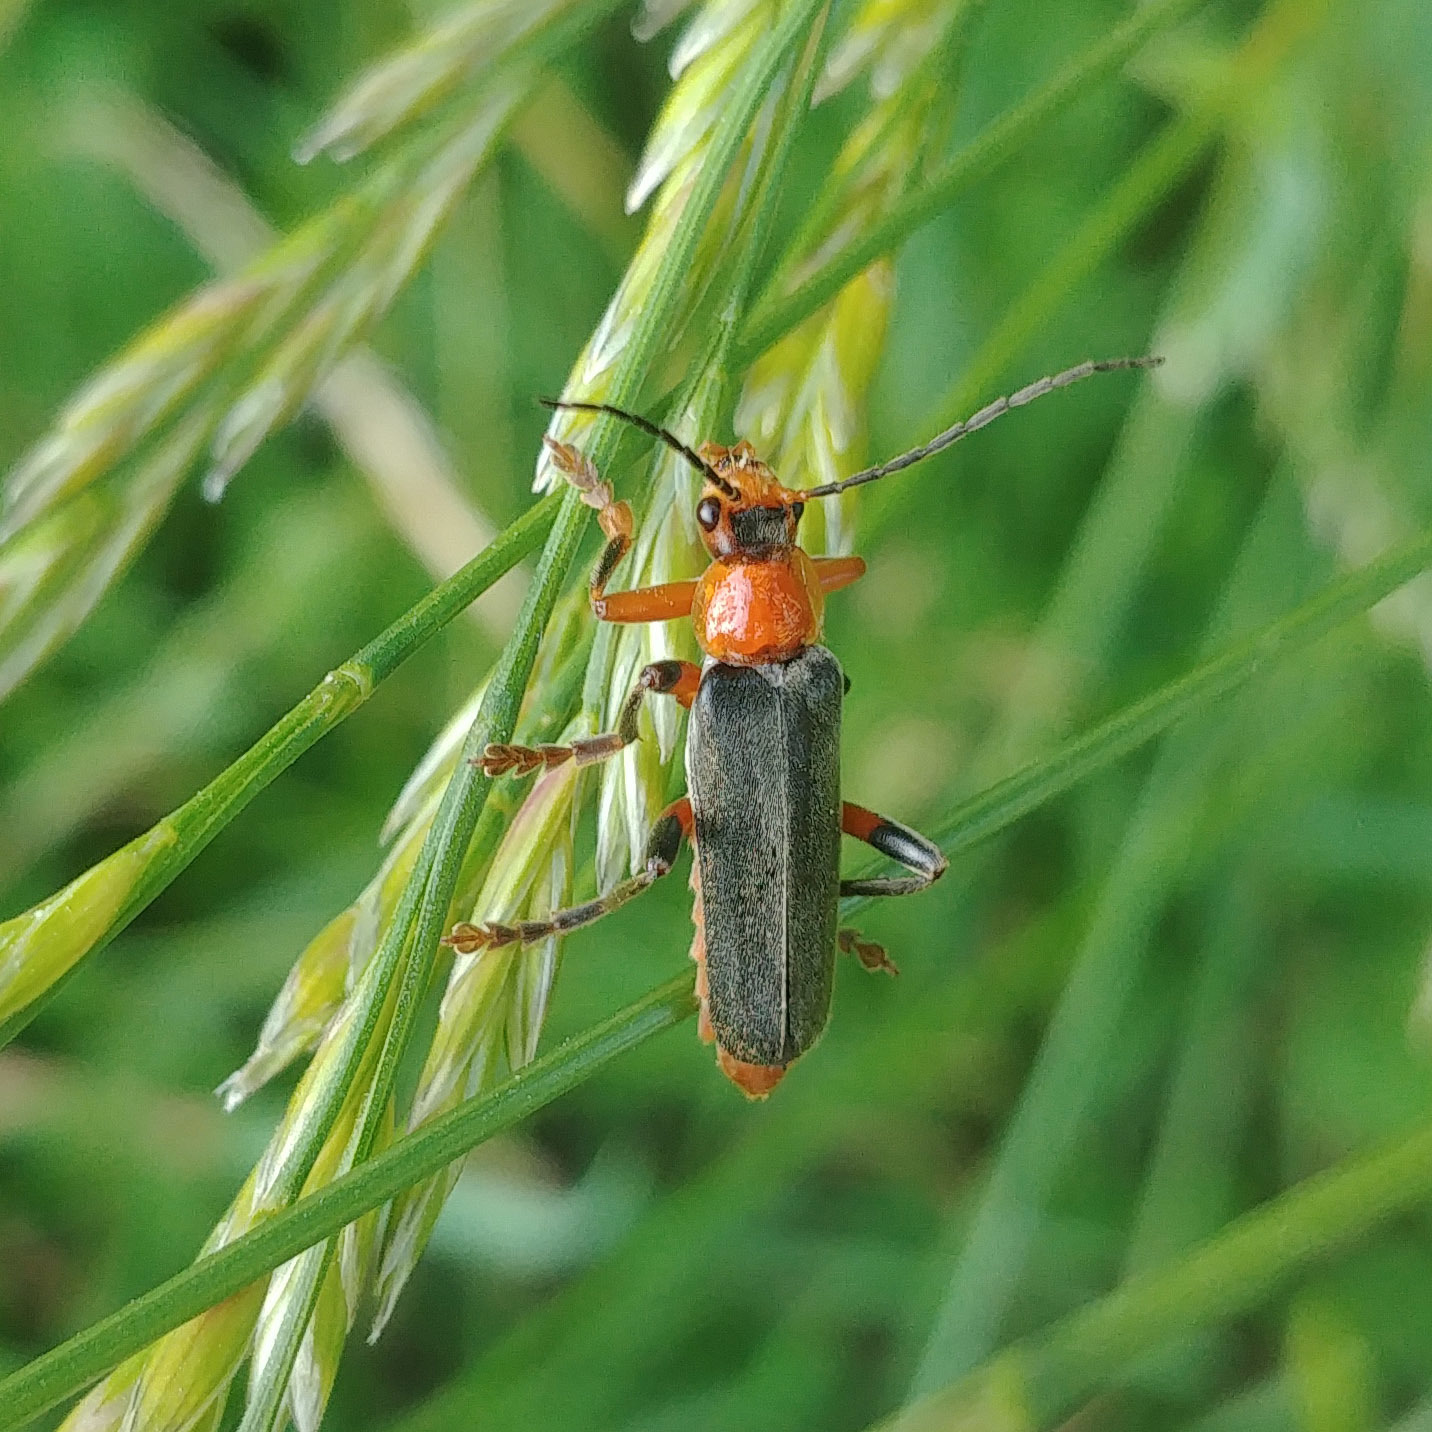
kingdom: Animalia
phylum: Arthropoda
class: Insecta
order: Coleoptera
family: Cantharidae
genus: Cantharis
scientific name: Cantharis livida
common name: Livid soldier beetle
